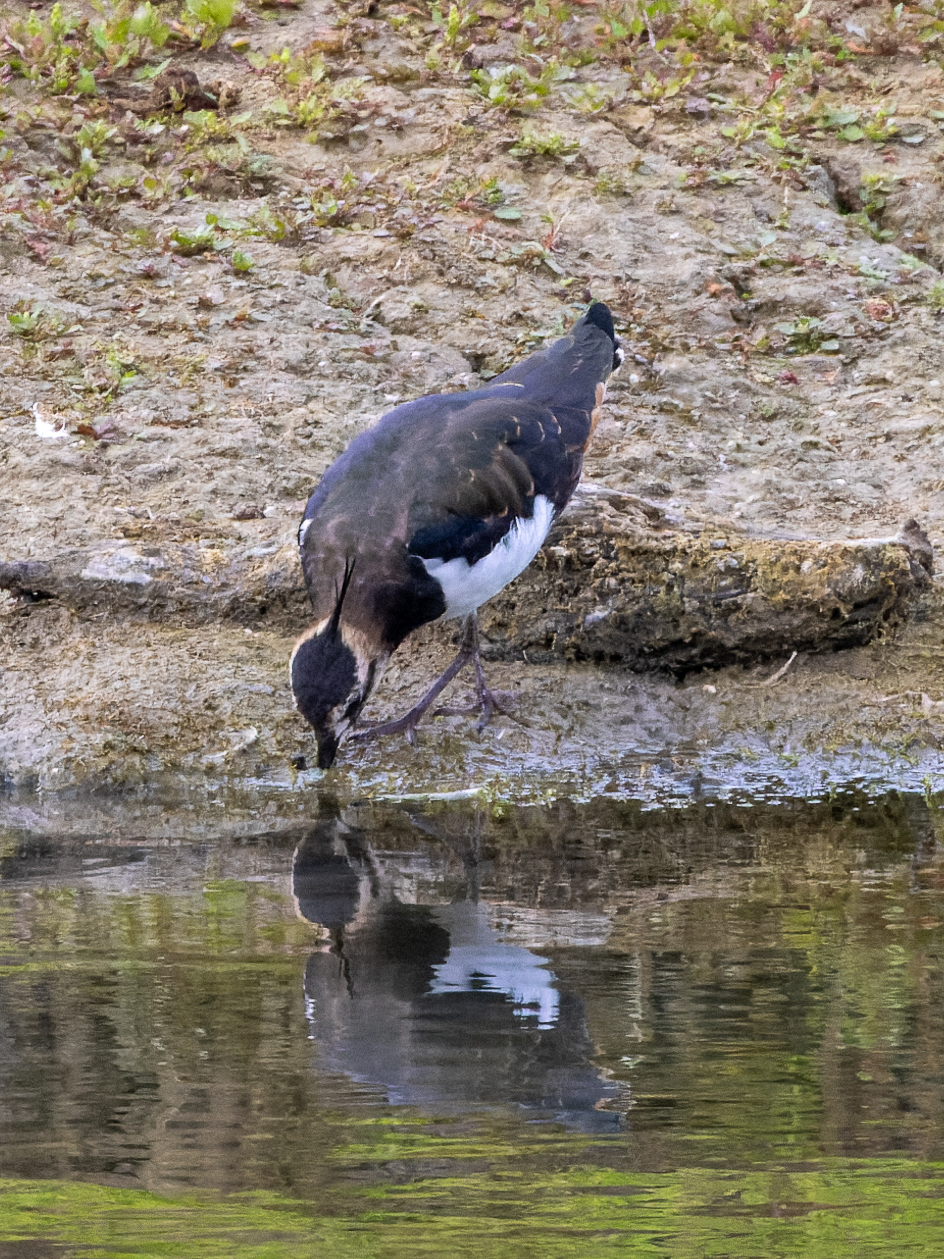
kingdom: Animalia
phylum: Chordata
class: Aves
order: Charadriiformes
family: Charadriidae
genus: Vanellus
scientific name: Vanellus vanellus
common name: Northern lapwing
